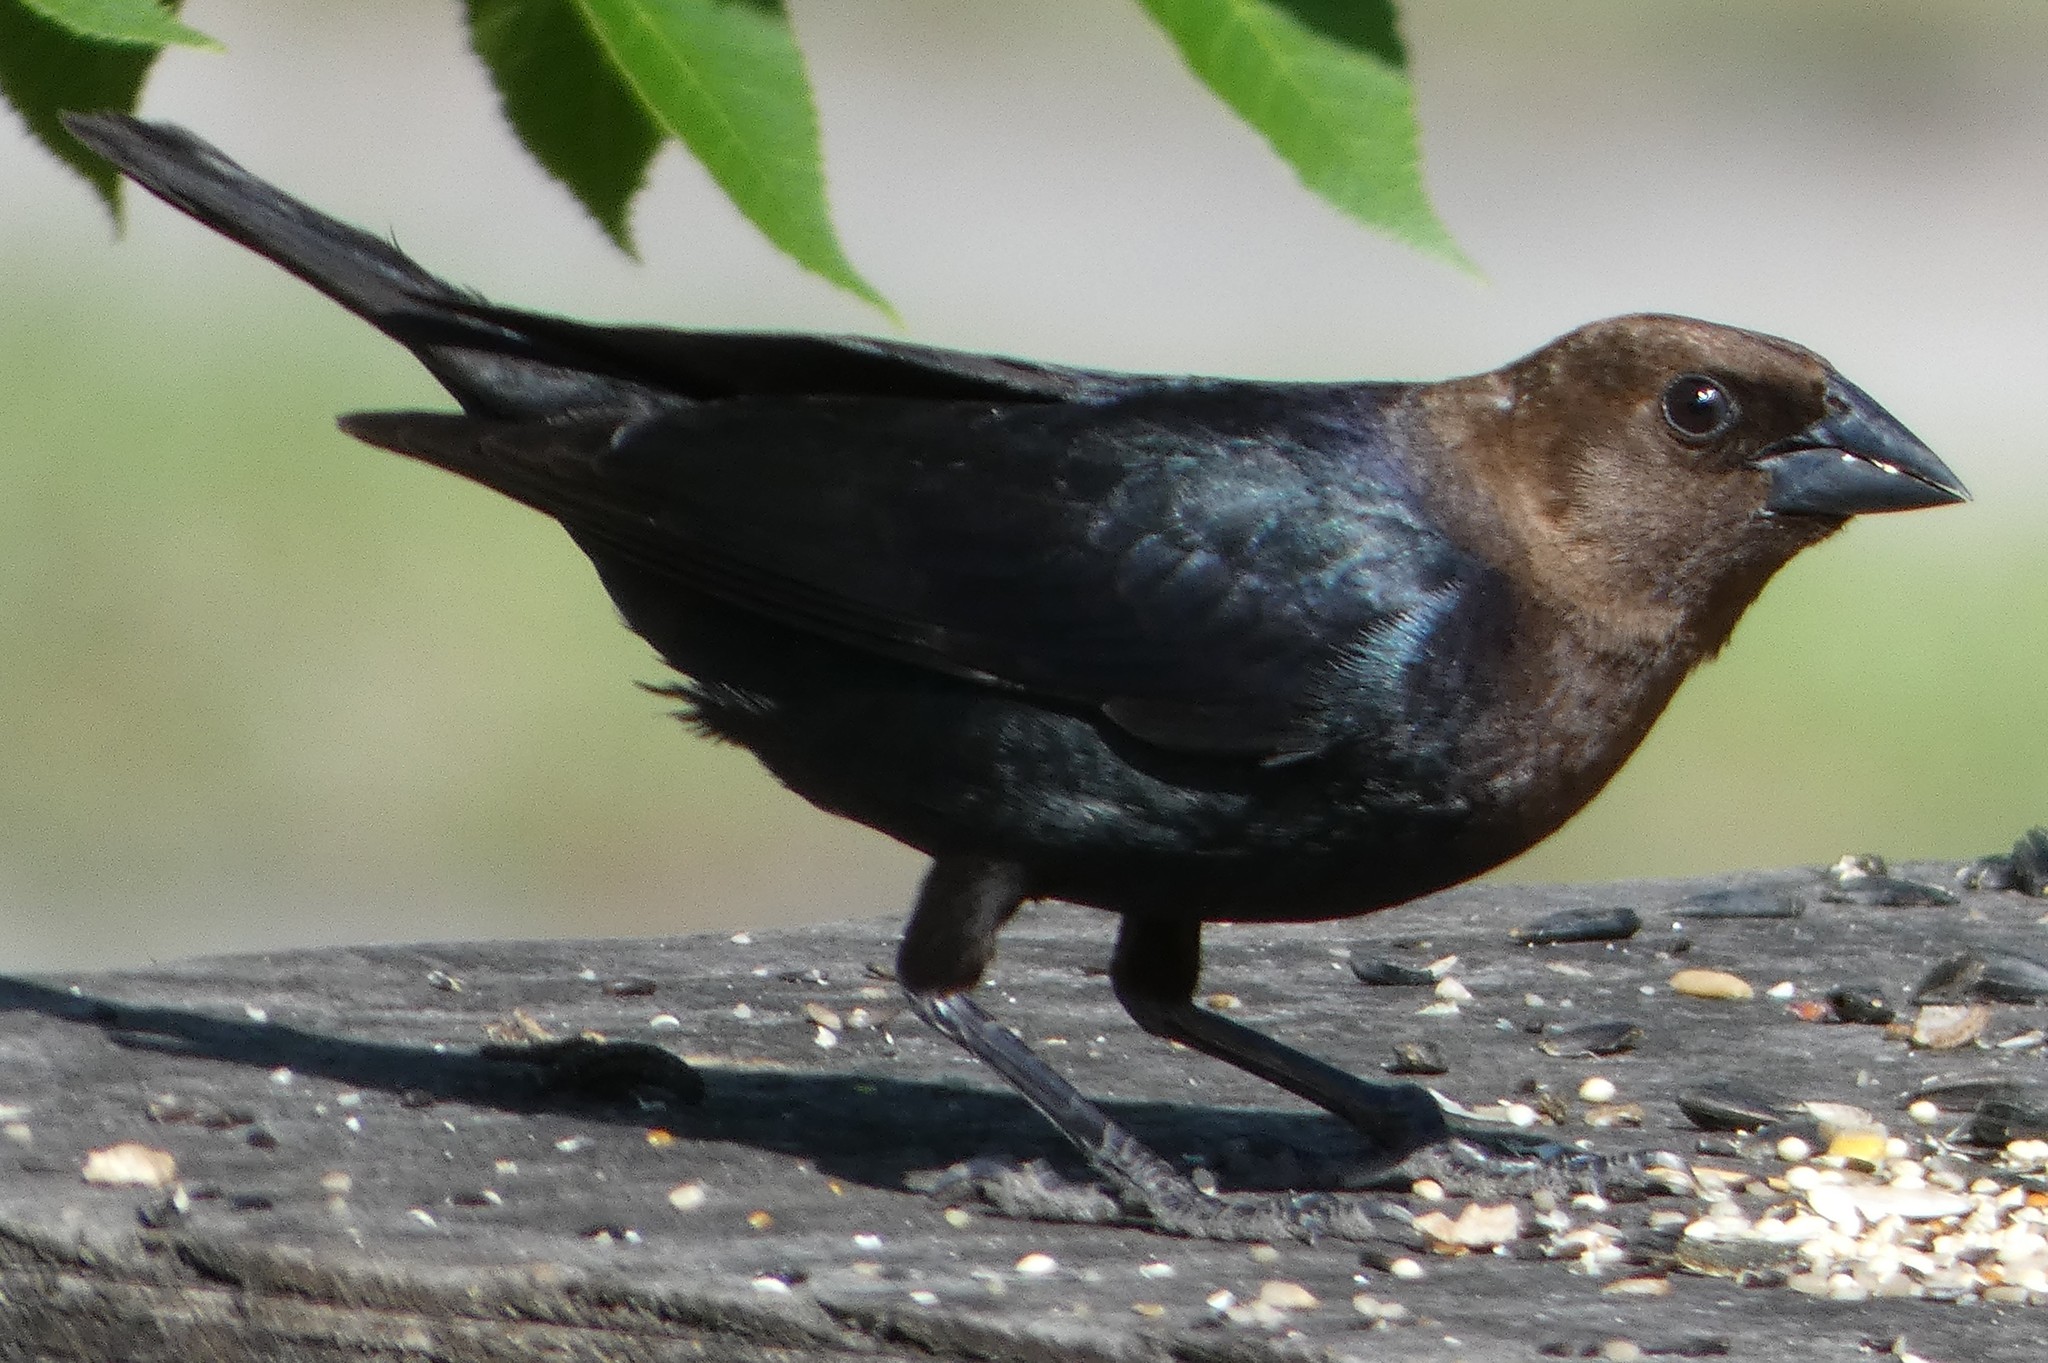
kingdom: Animalia
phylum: Chordata
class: Aves
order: Passeriformes
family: Icteridae
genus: Molothrus
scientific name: Molothrus ater
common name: Brown-headed cowbird
